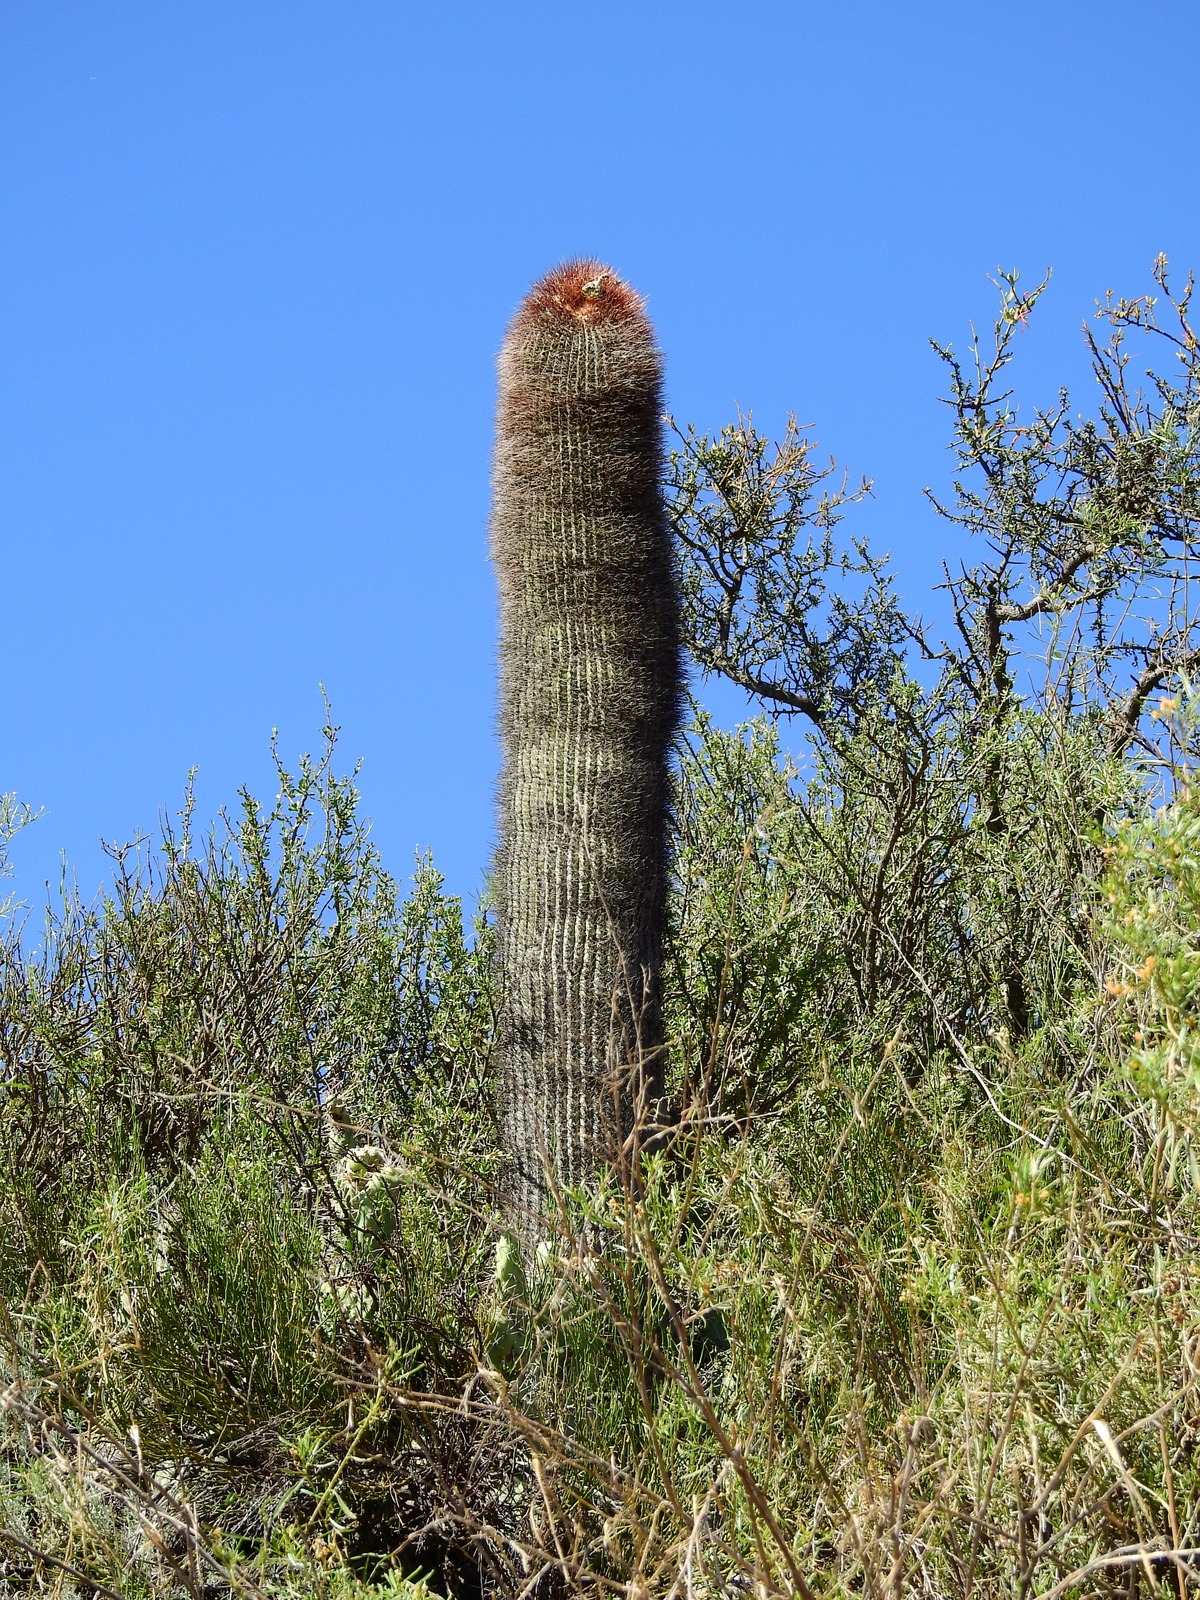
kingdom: Plantae
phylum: Tracheophyta
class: Magnoliopsida
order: Caryophyllales
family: Cactaceae
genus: Denmoza
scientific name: Denmoza rhodacantha
